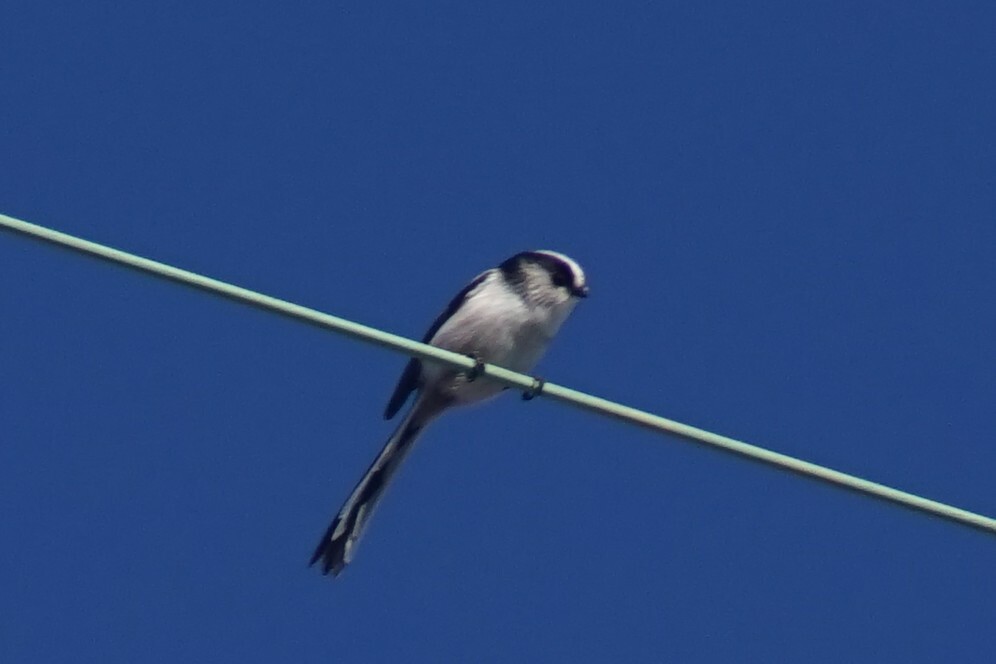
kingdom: Animalia
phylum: Chordata
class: Aves
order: Passeriformes
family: Aegithalidae
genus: Aegithalos
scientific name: Aegithalos caudatus
